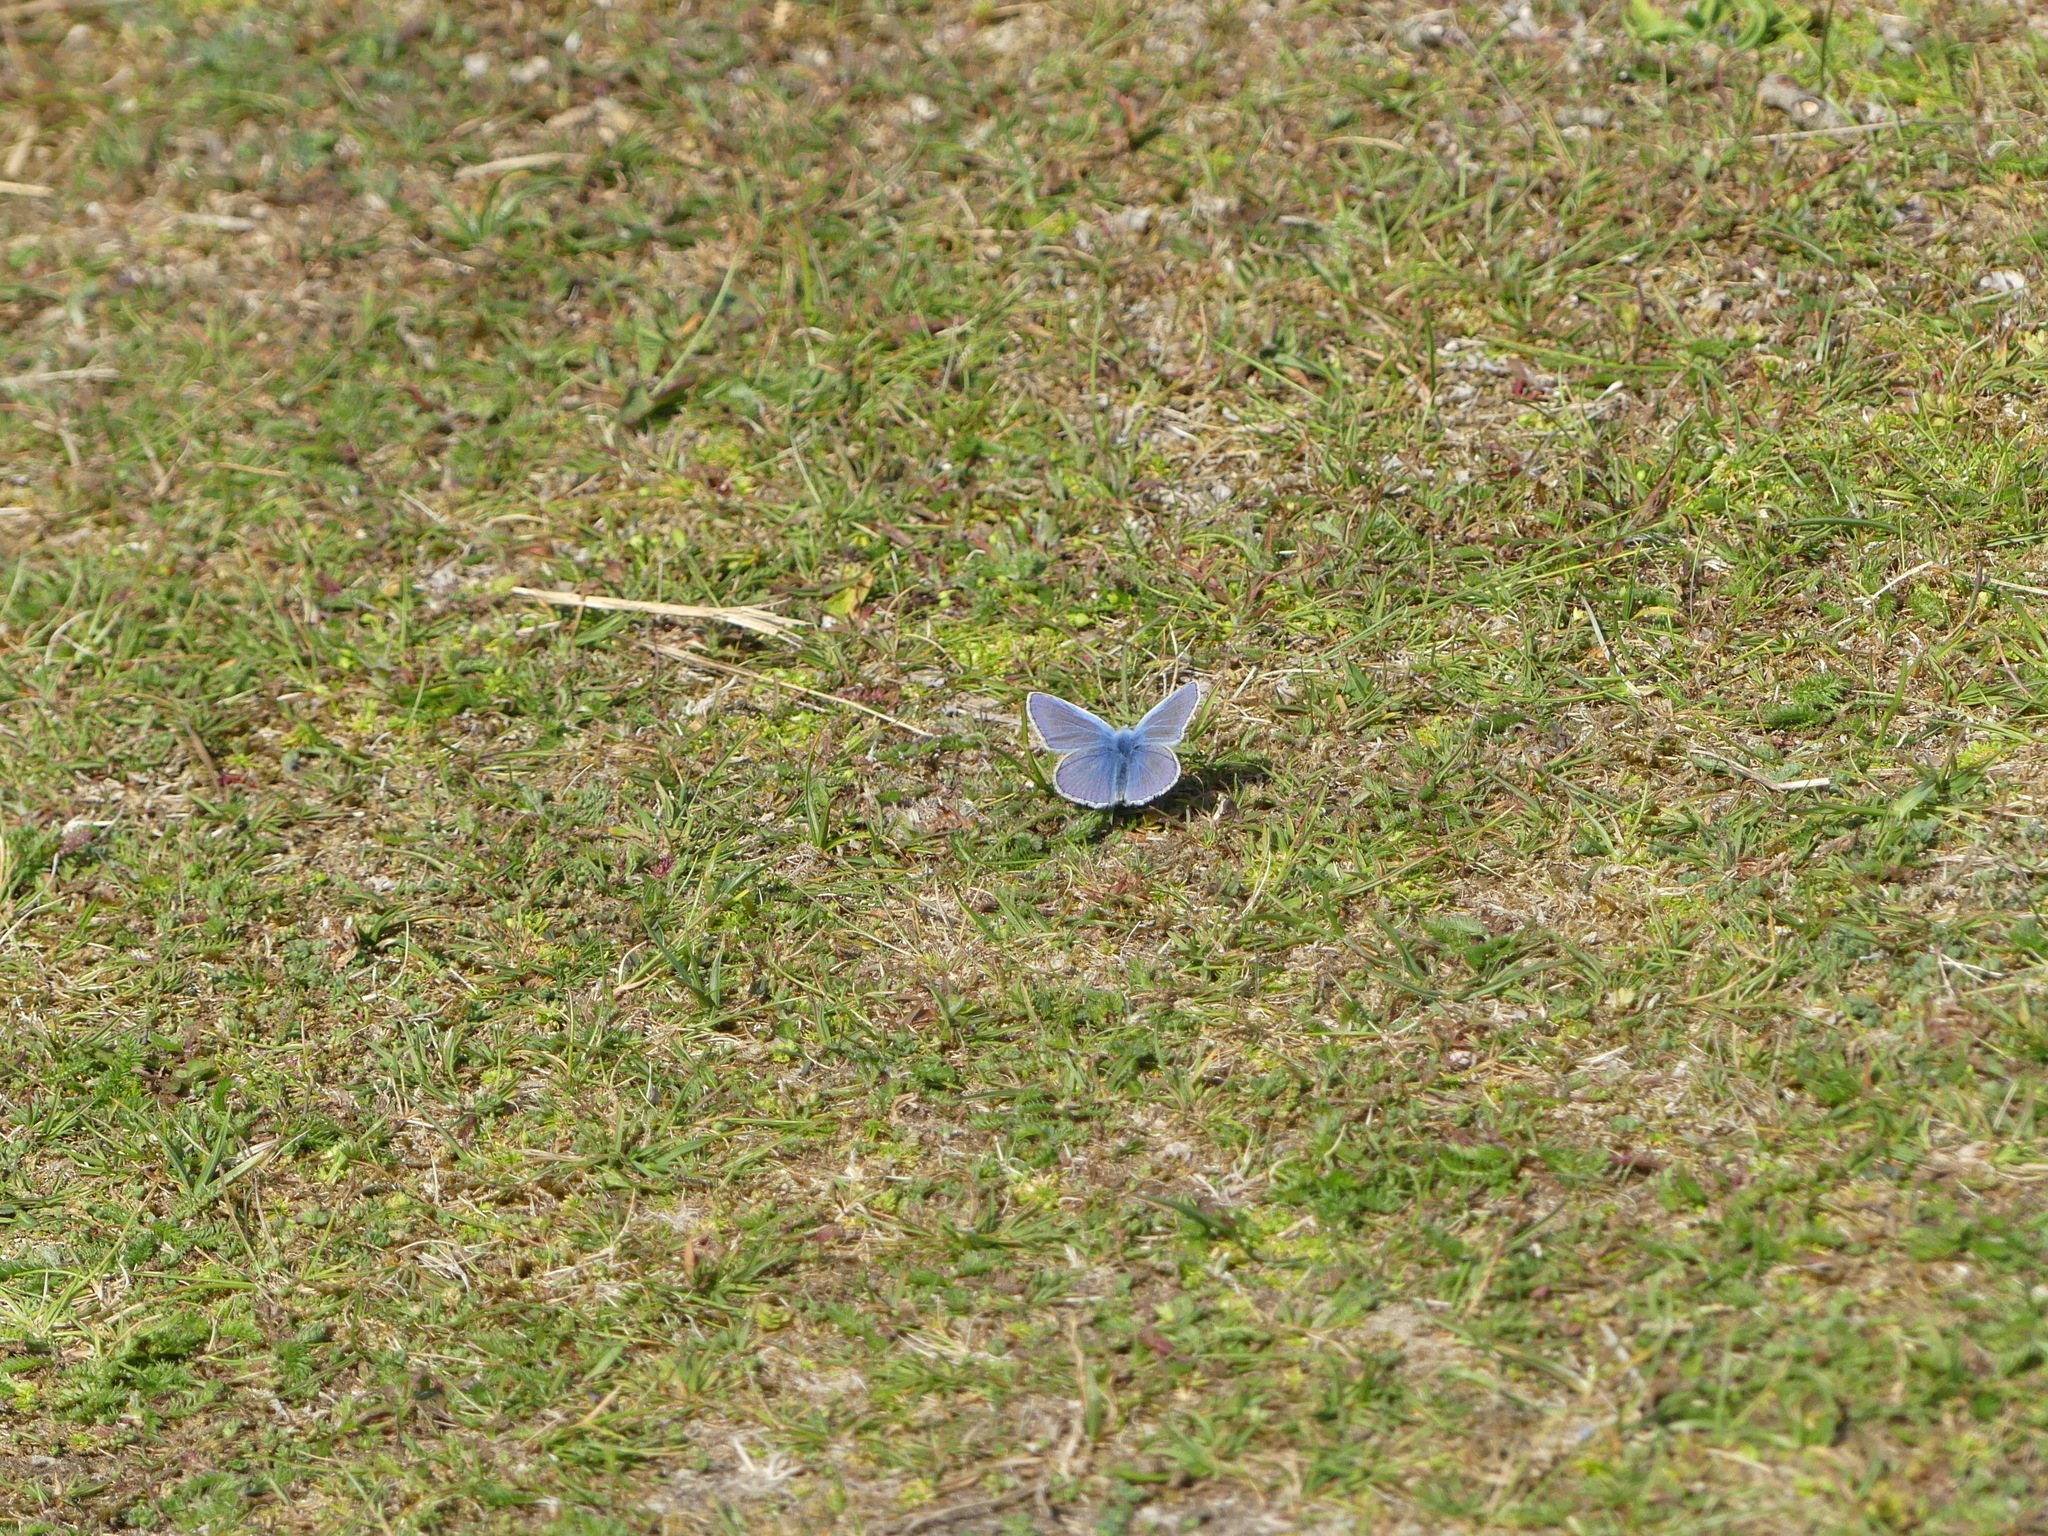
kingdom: Animalia
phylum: Arthropoda
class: Insecta
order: Lepidoptera
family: Lycaenidae
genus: Polyommatus
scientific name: Polyommatus icarus
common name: Common blue
